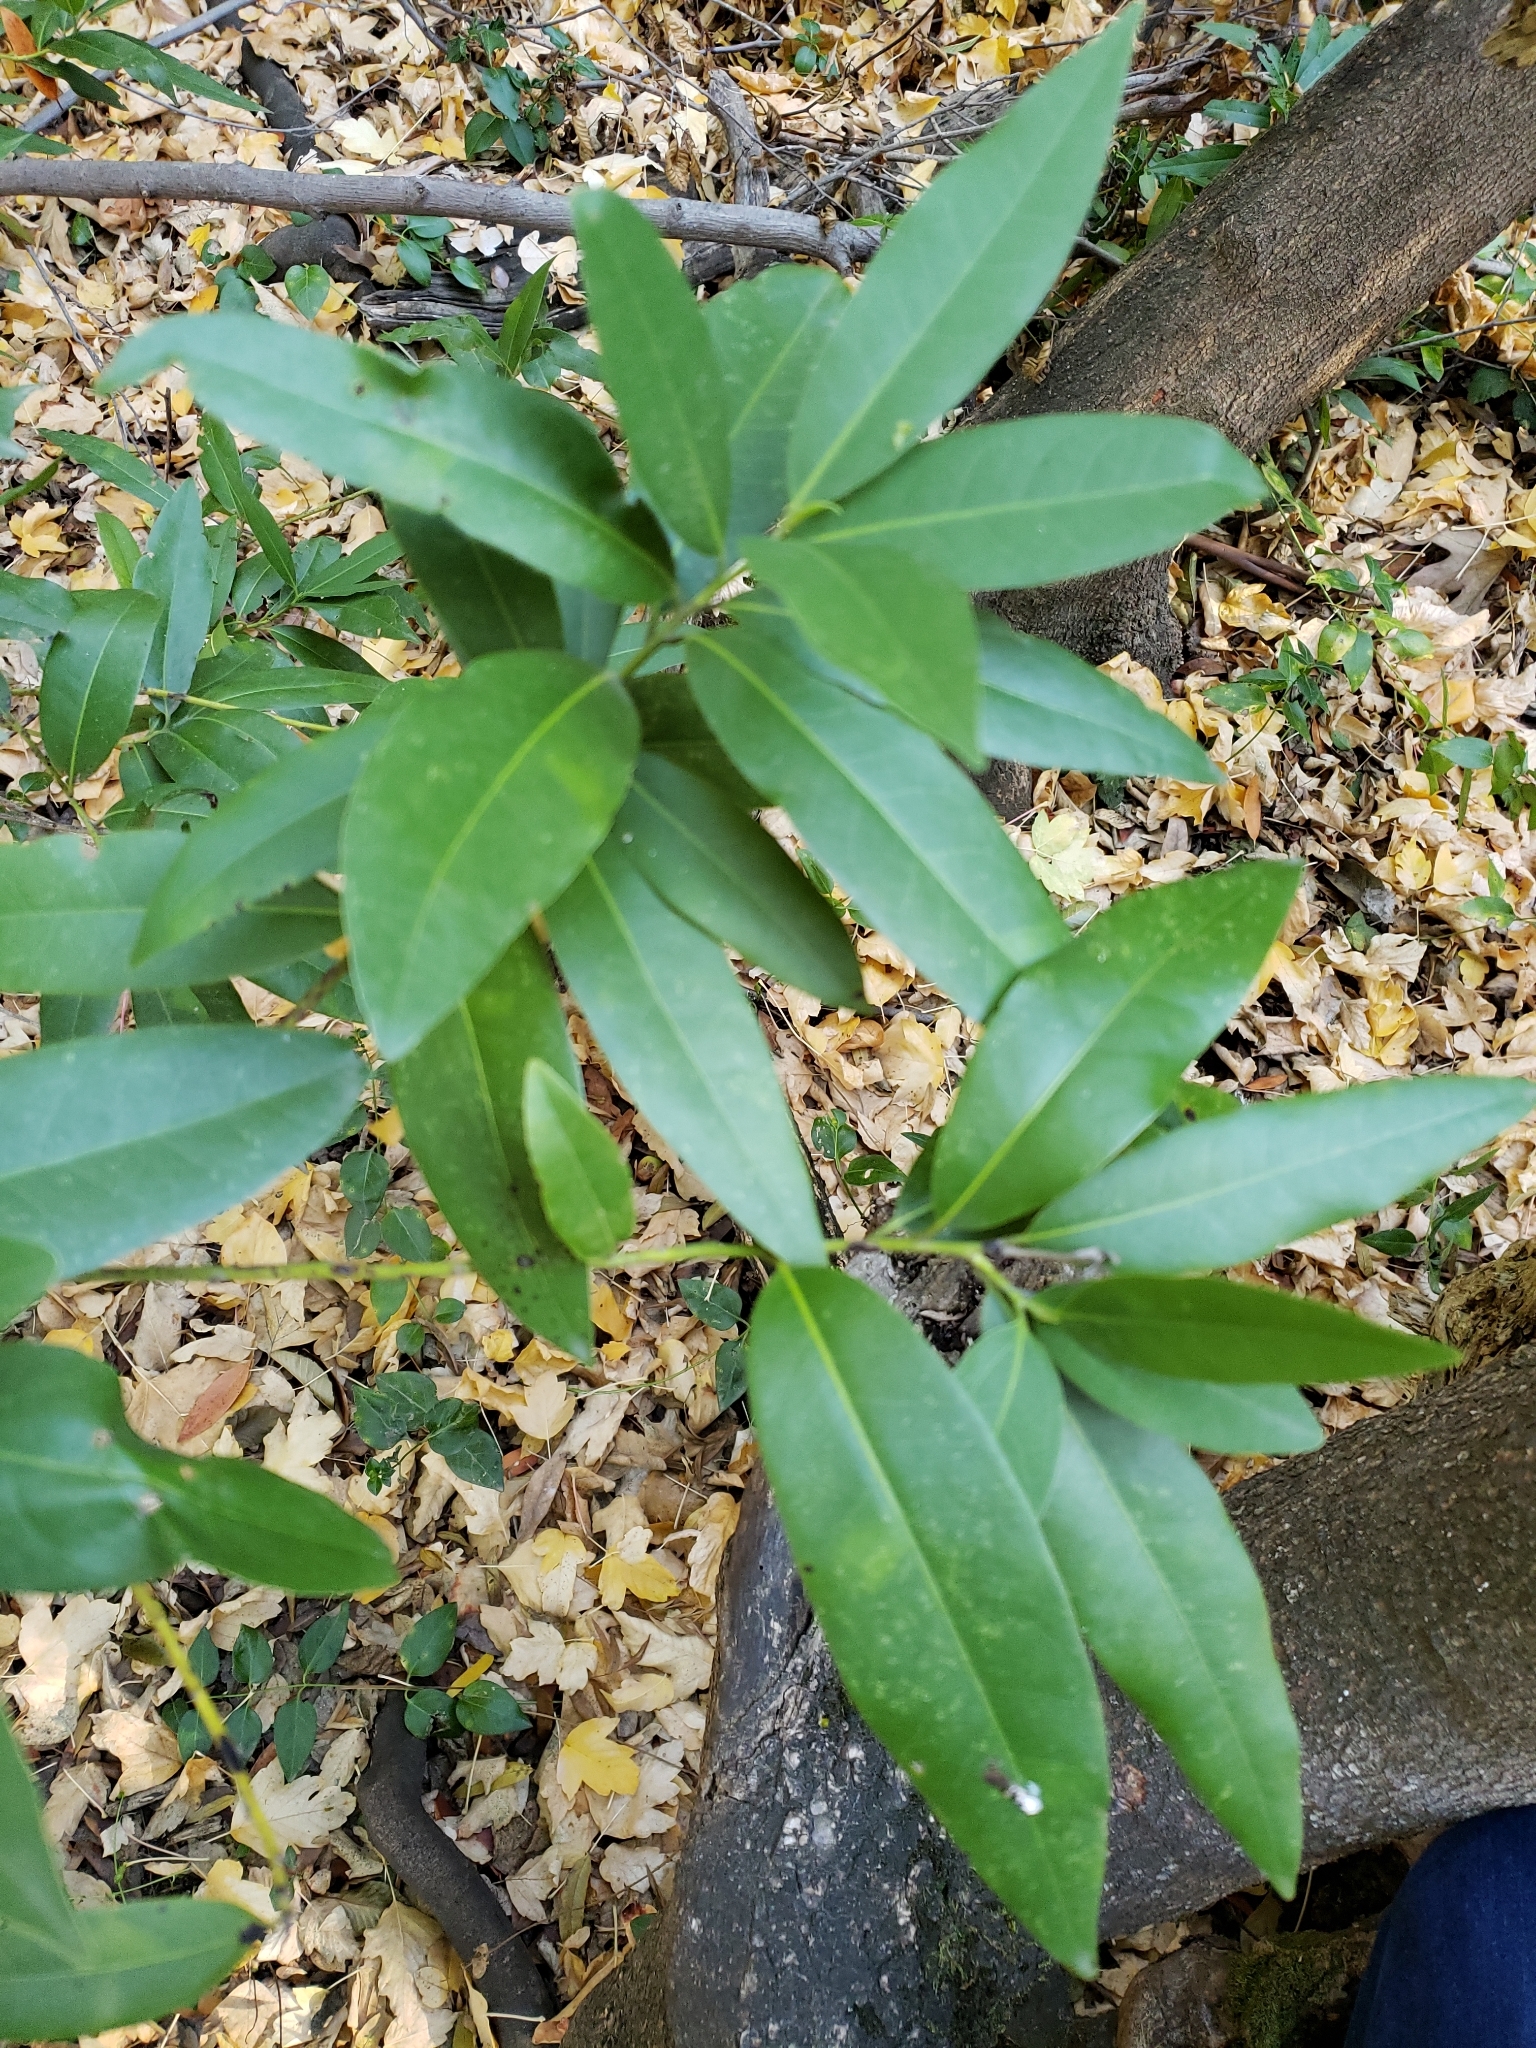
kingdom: Plantae
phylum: Tracheophyta
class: Magnoliopsida
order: Laurales
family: Lauraceae
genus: Umbellularia
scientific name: Umbellularia californica
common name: California bay
